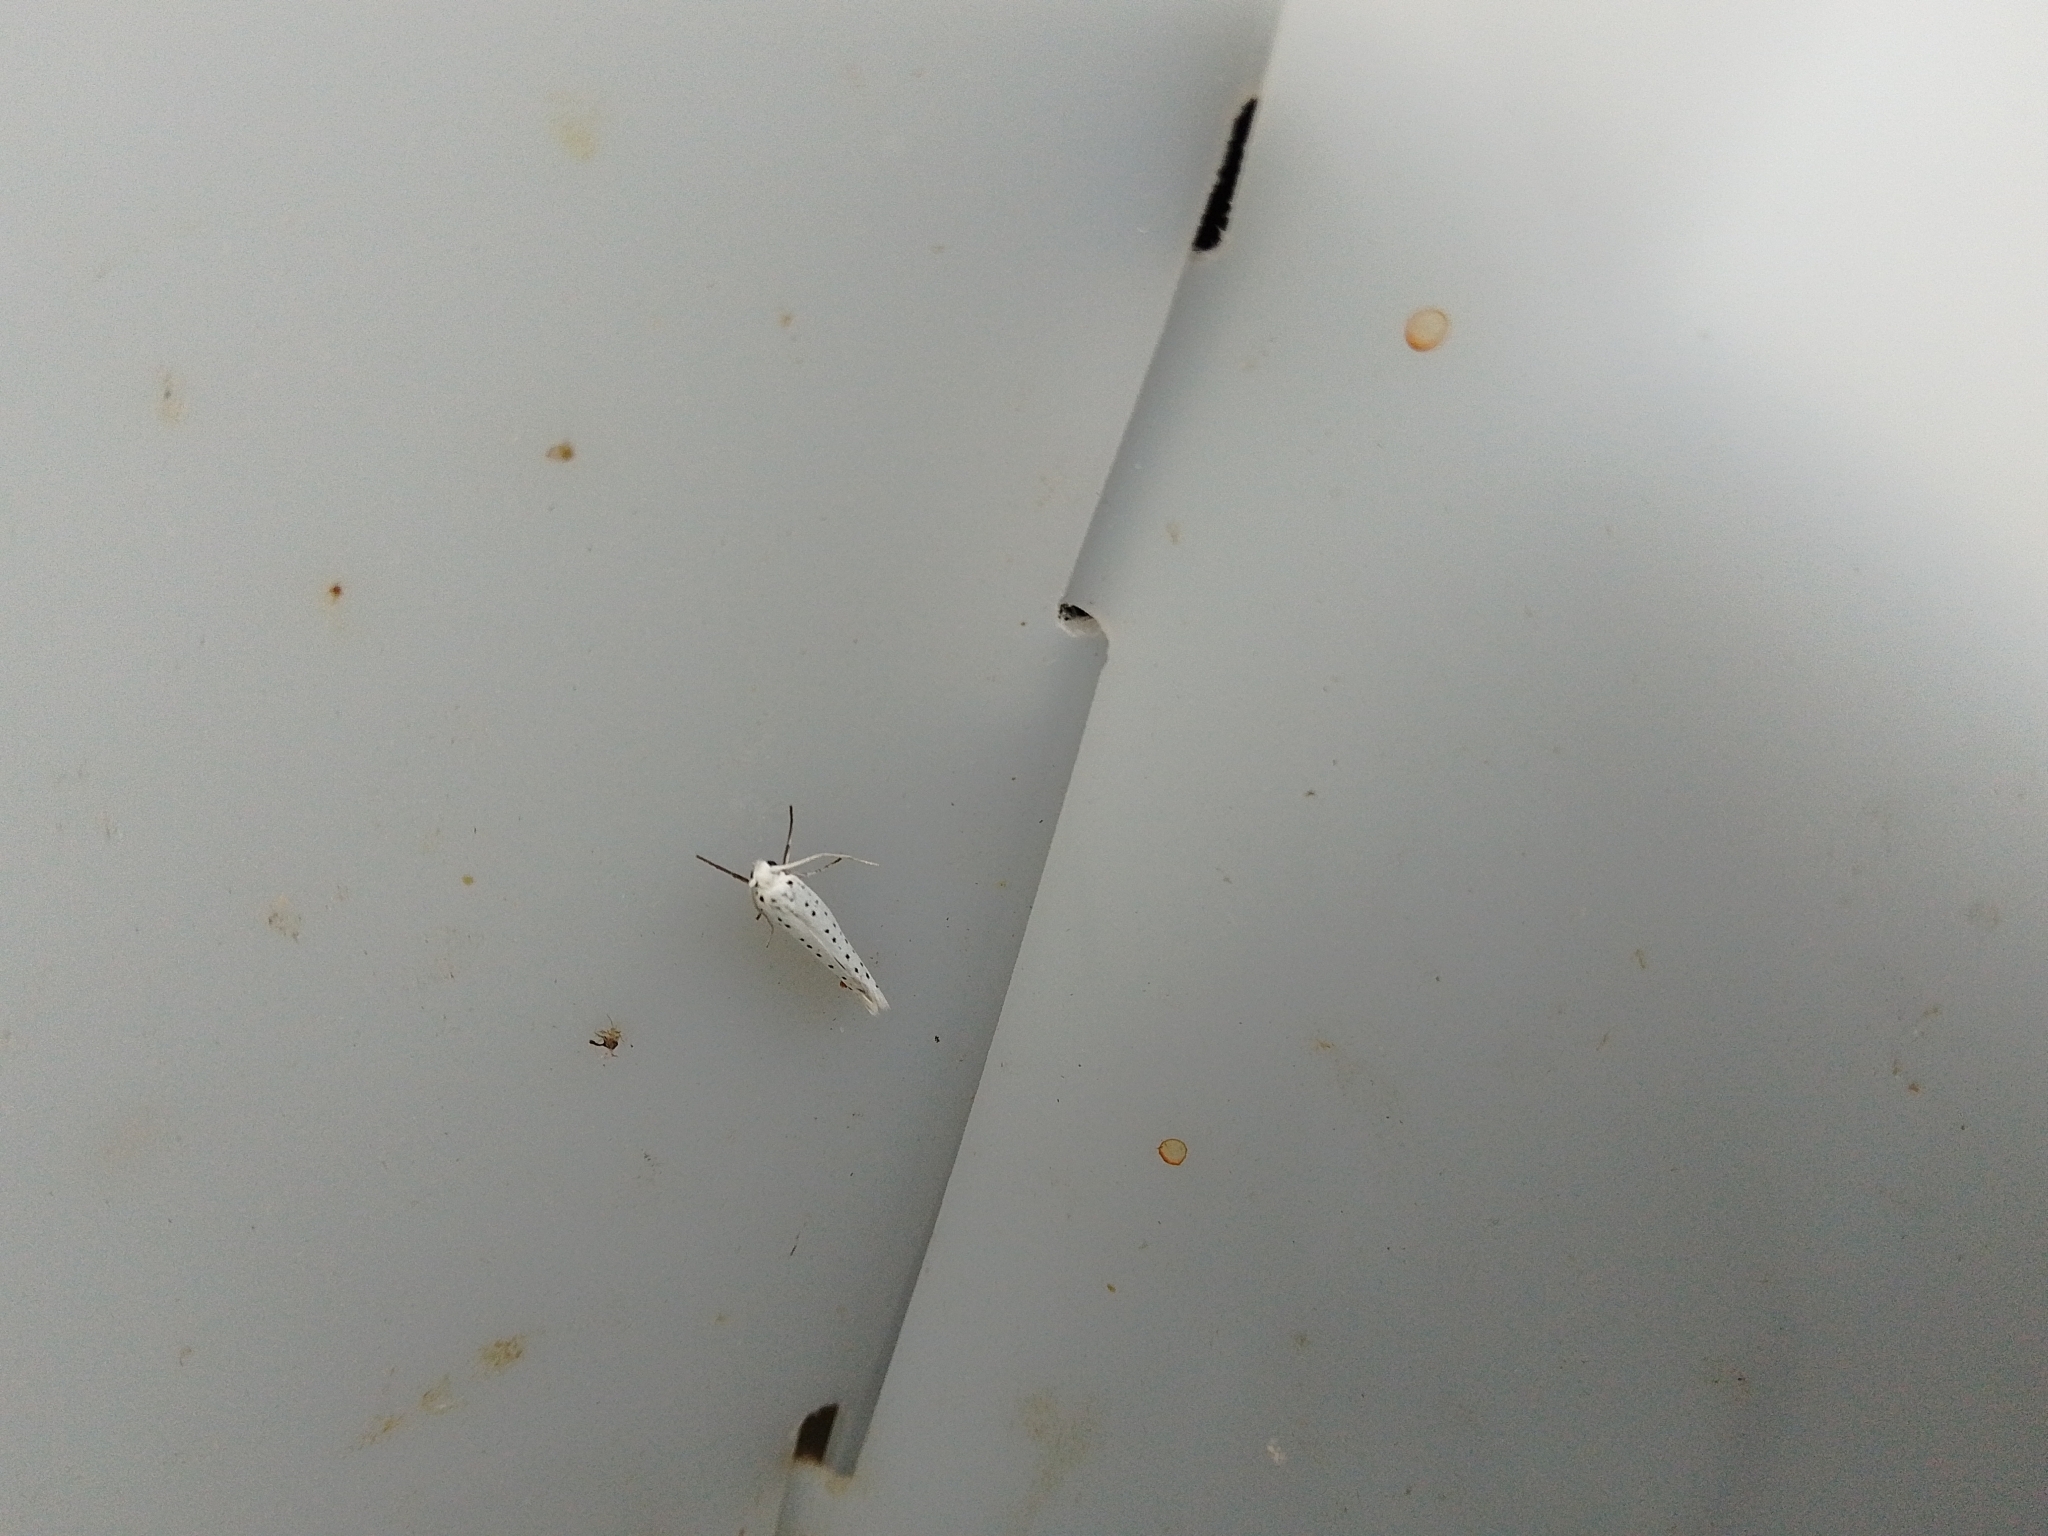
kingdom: Animalia
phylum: Arthropoda
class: Insecta
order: Lepidoptera
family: Yponomeutidae
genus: Yponomeuta
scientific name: Yponomeuta
